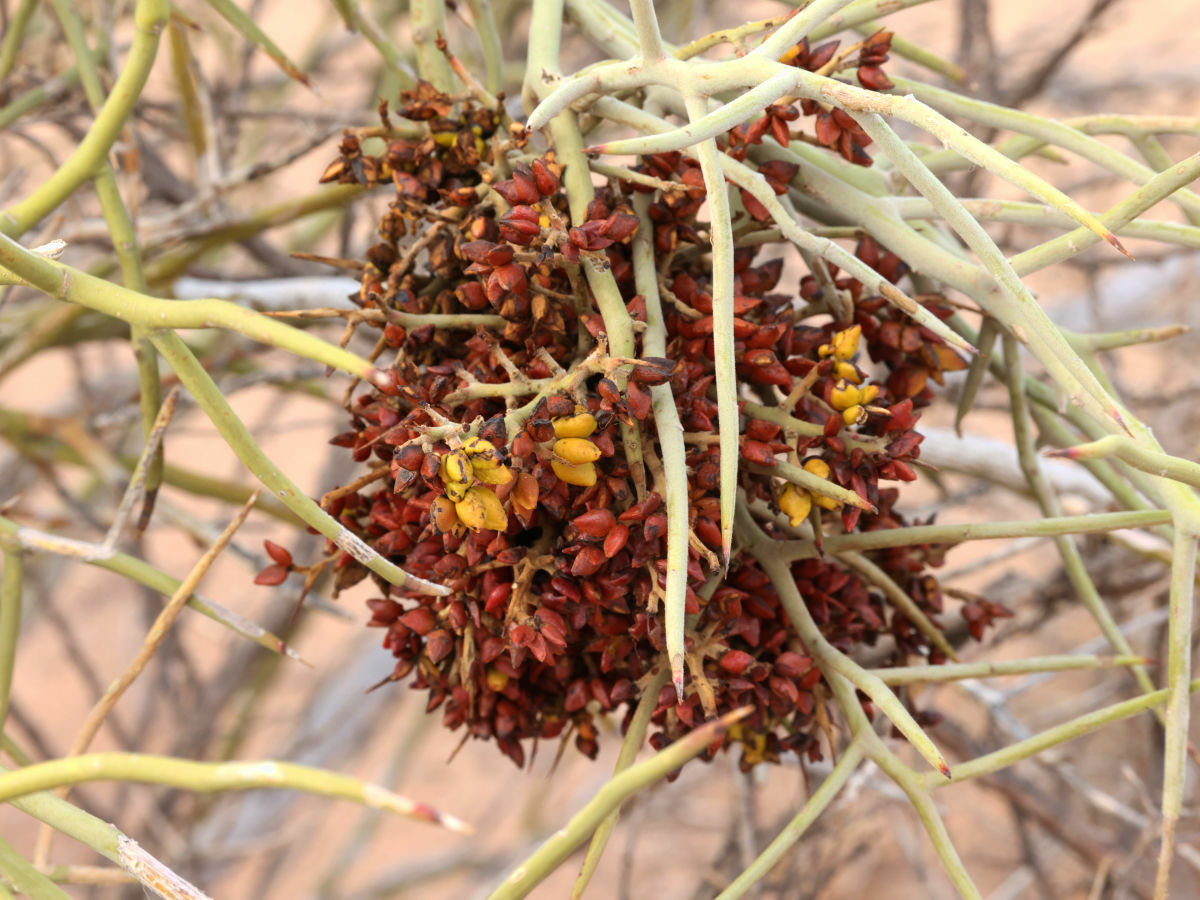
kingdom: Plantae
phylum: Tracheophyta
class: Magnoliopsida
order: Sapindales
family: Simaroubaceae
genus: Holacantha
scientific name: Holacantha emoryi
